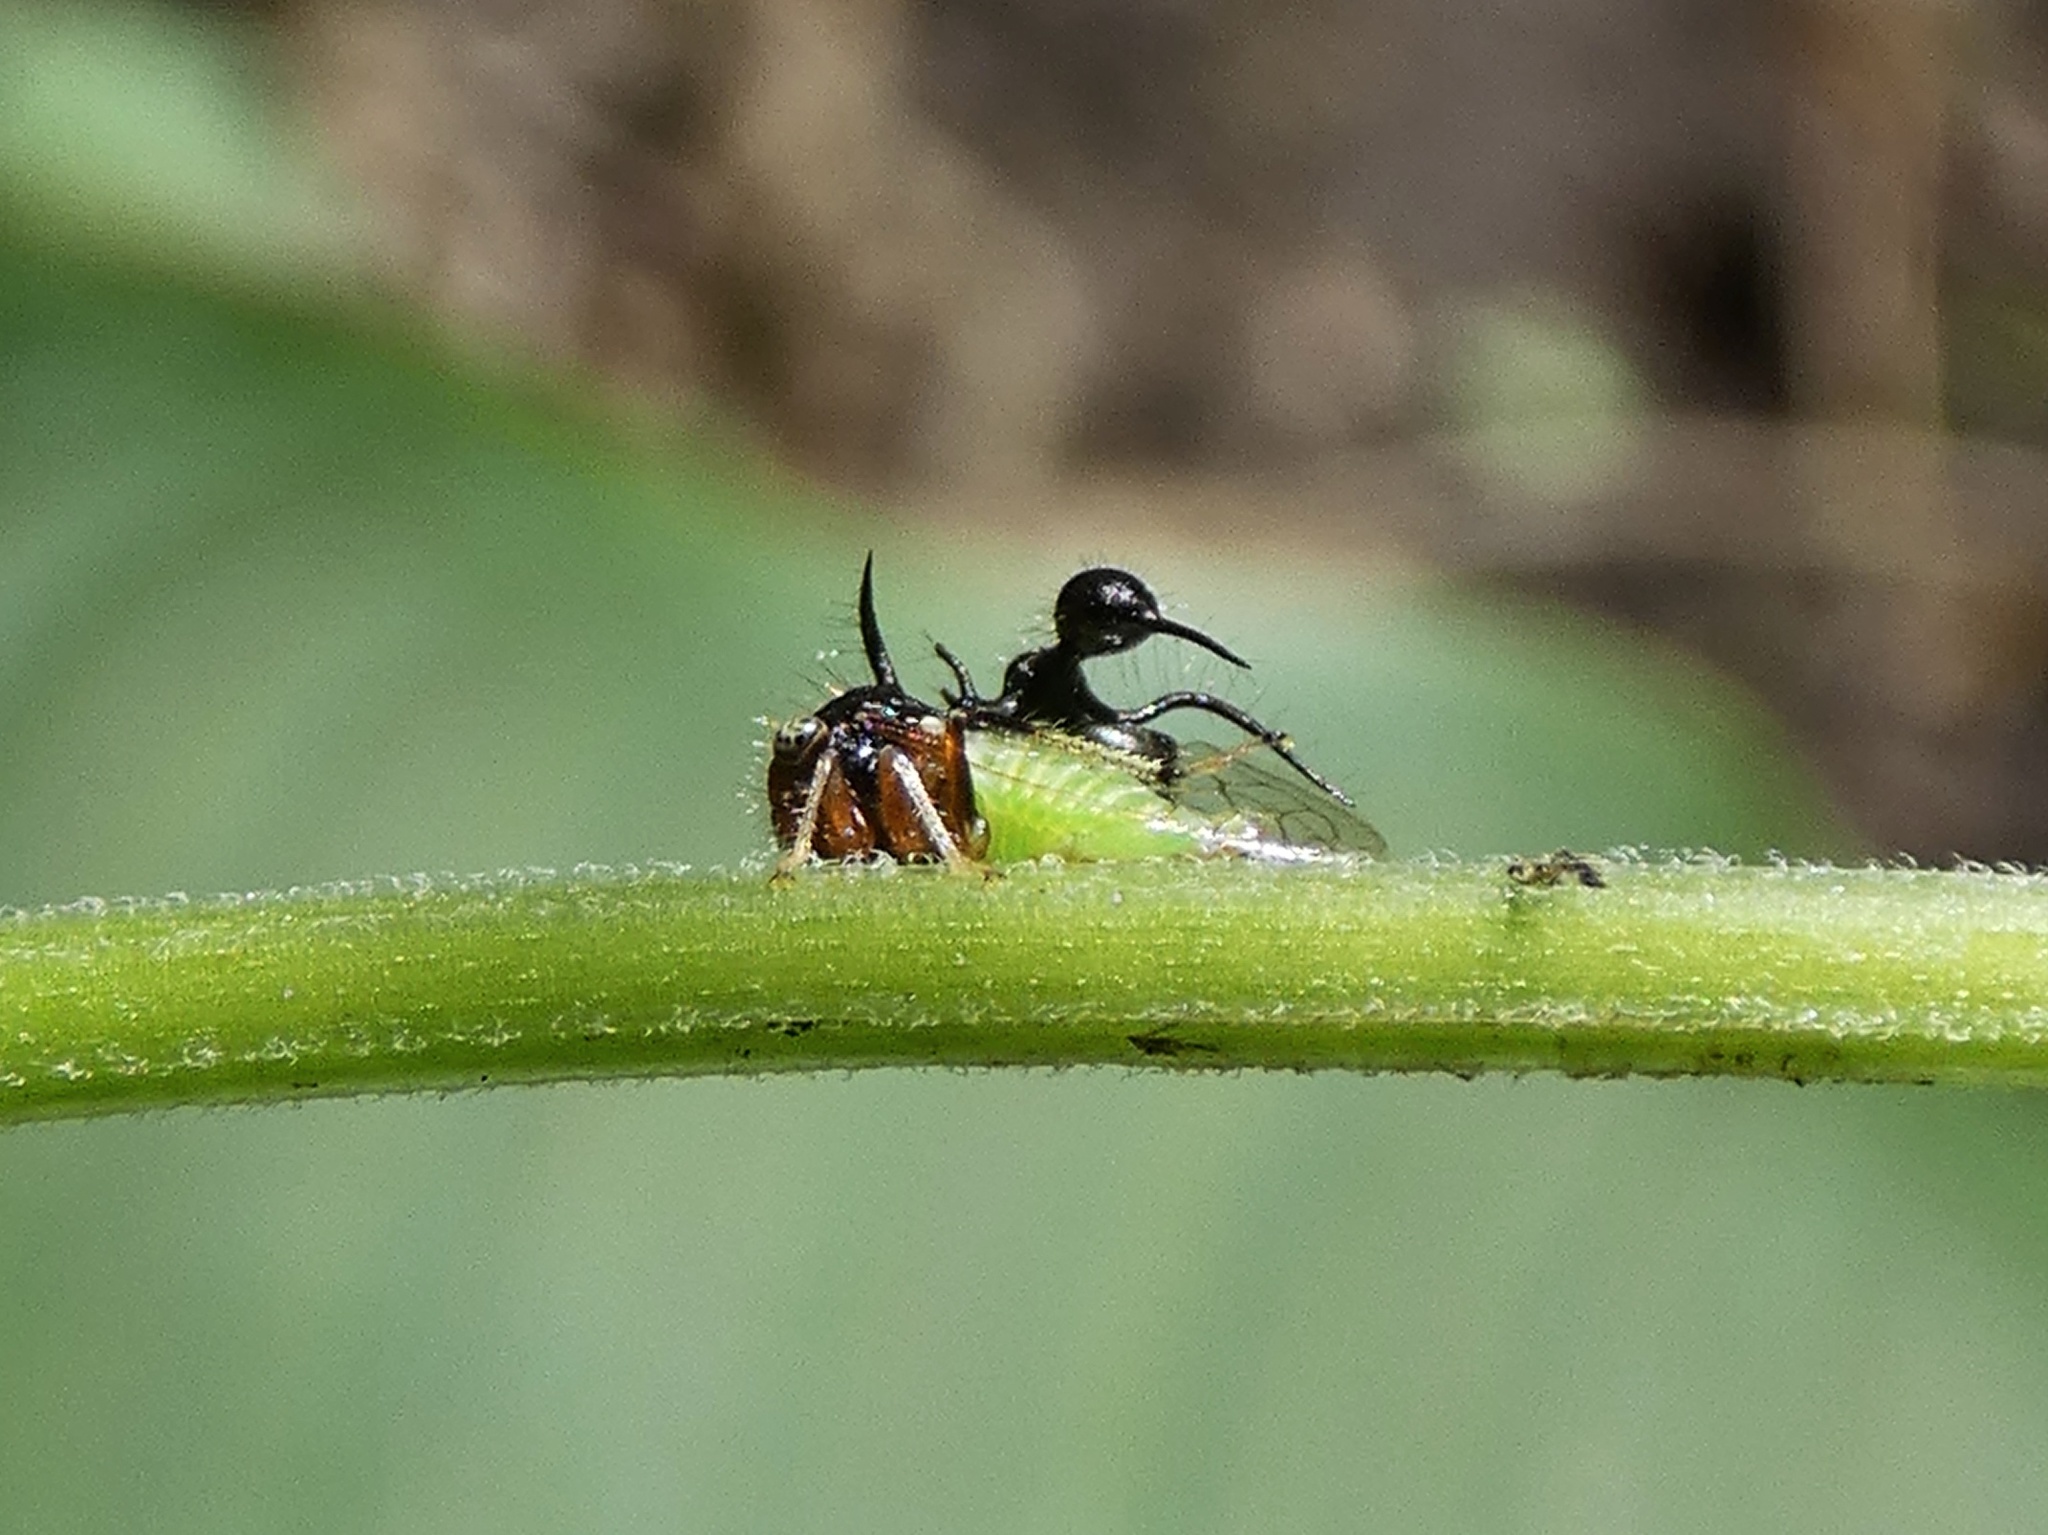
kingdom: Animalia
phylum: Arthropoda
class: Insecta
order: Hemiptera
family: Membracidae
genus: Cyphonia
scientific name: Cyphonia clavata
